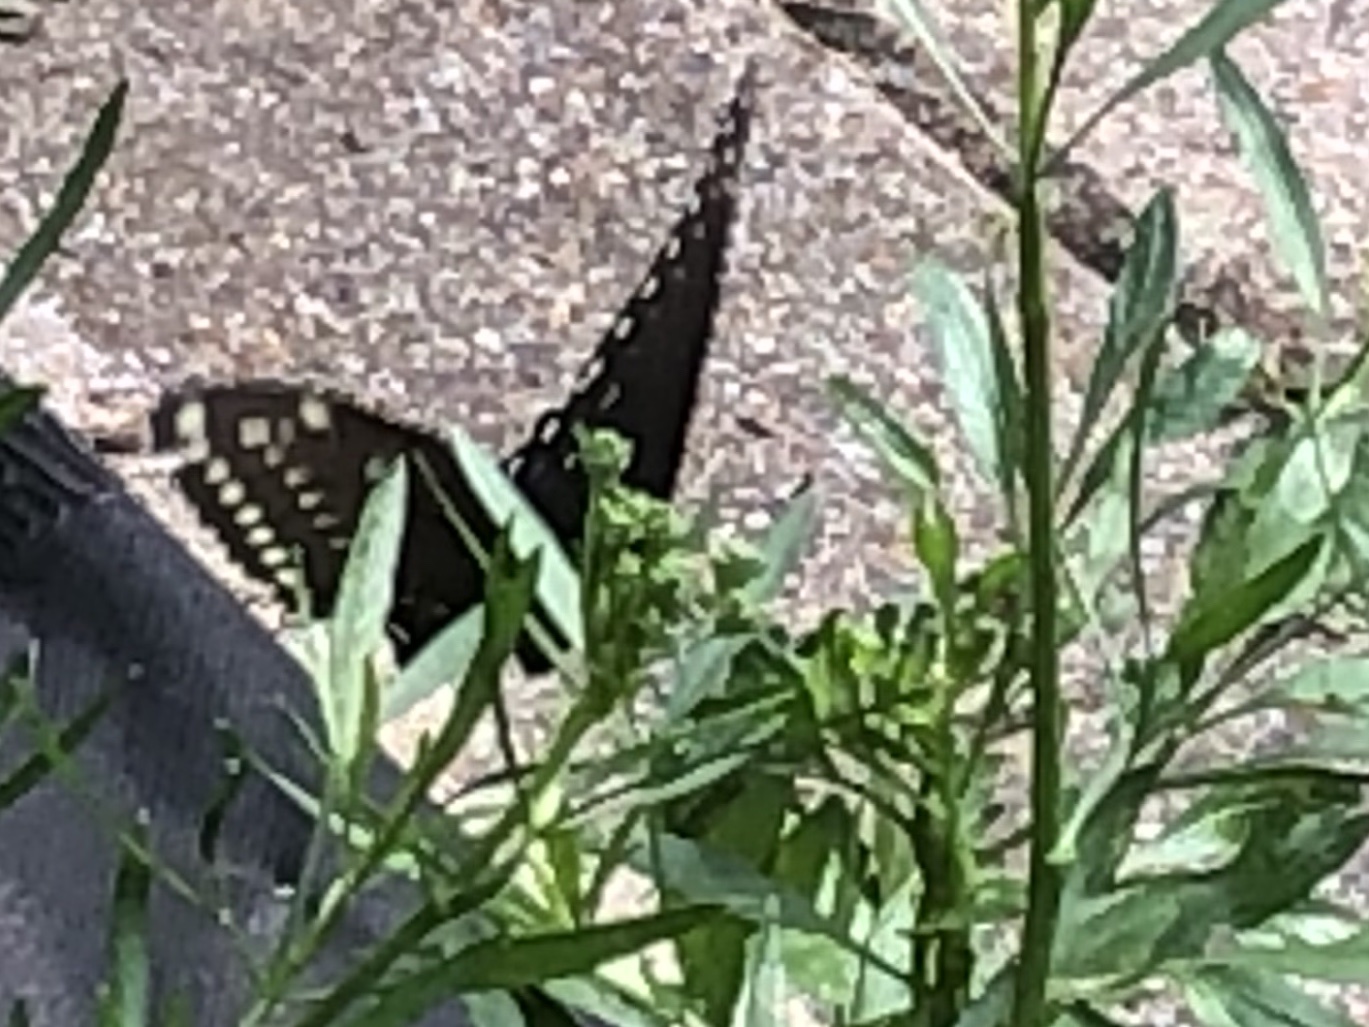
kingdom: Animalia
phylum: Arthropoda
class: Insecta
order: Lepidoptera
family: Papilionidae
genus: Papilio
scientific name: Papilio polyxenes
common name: Black swallowtail
